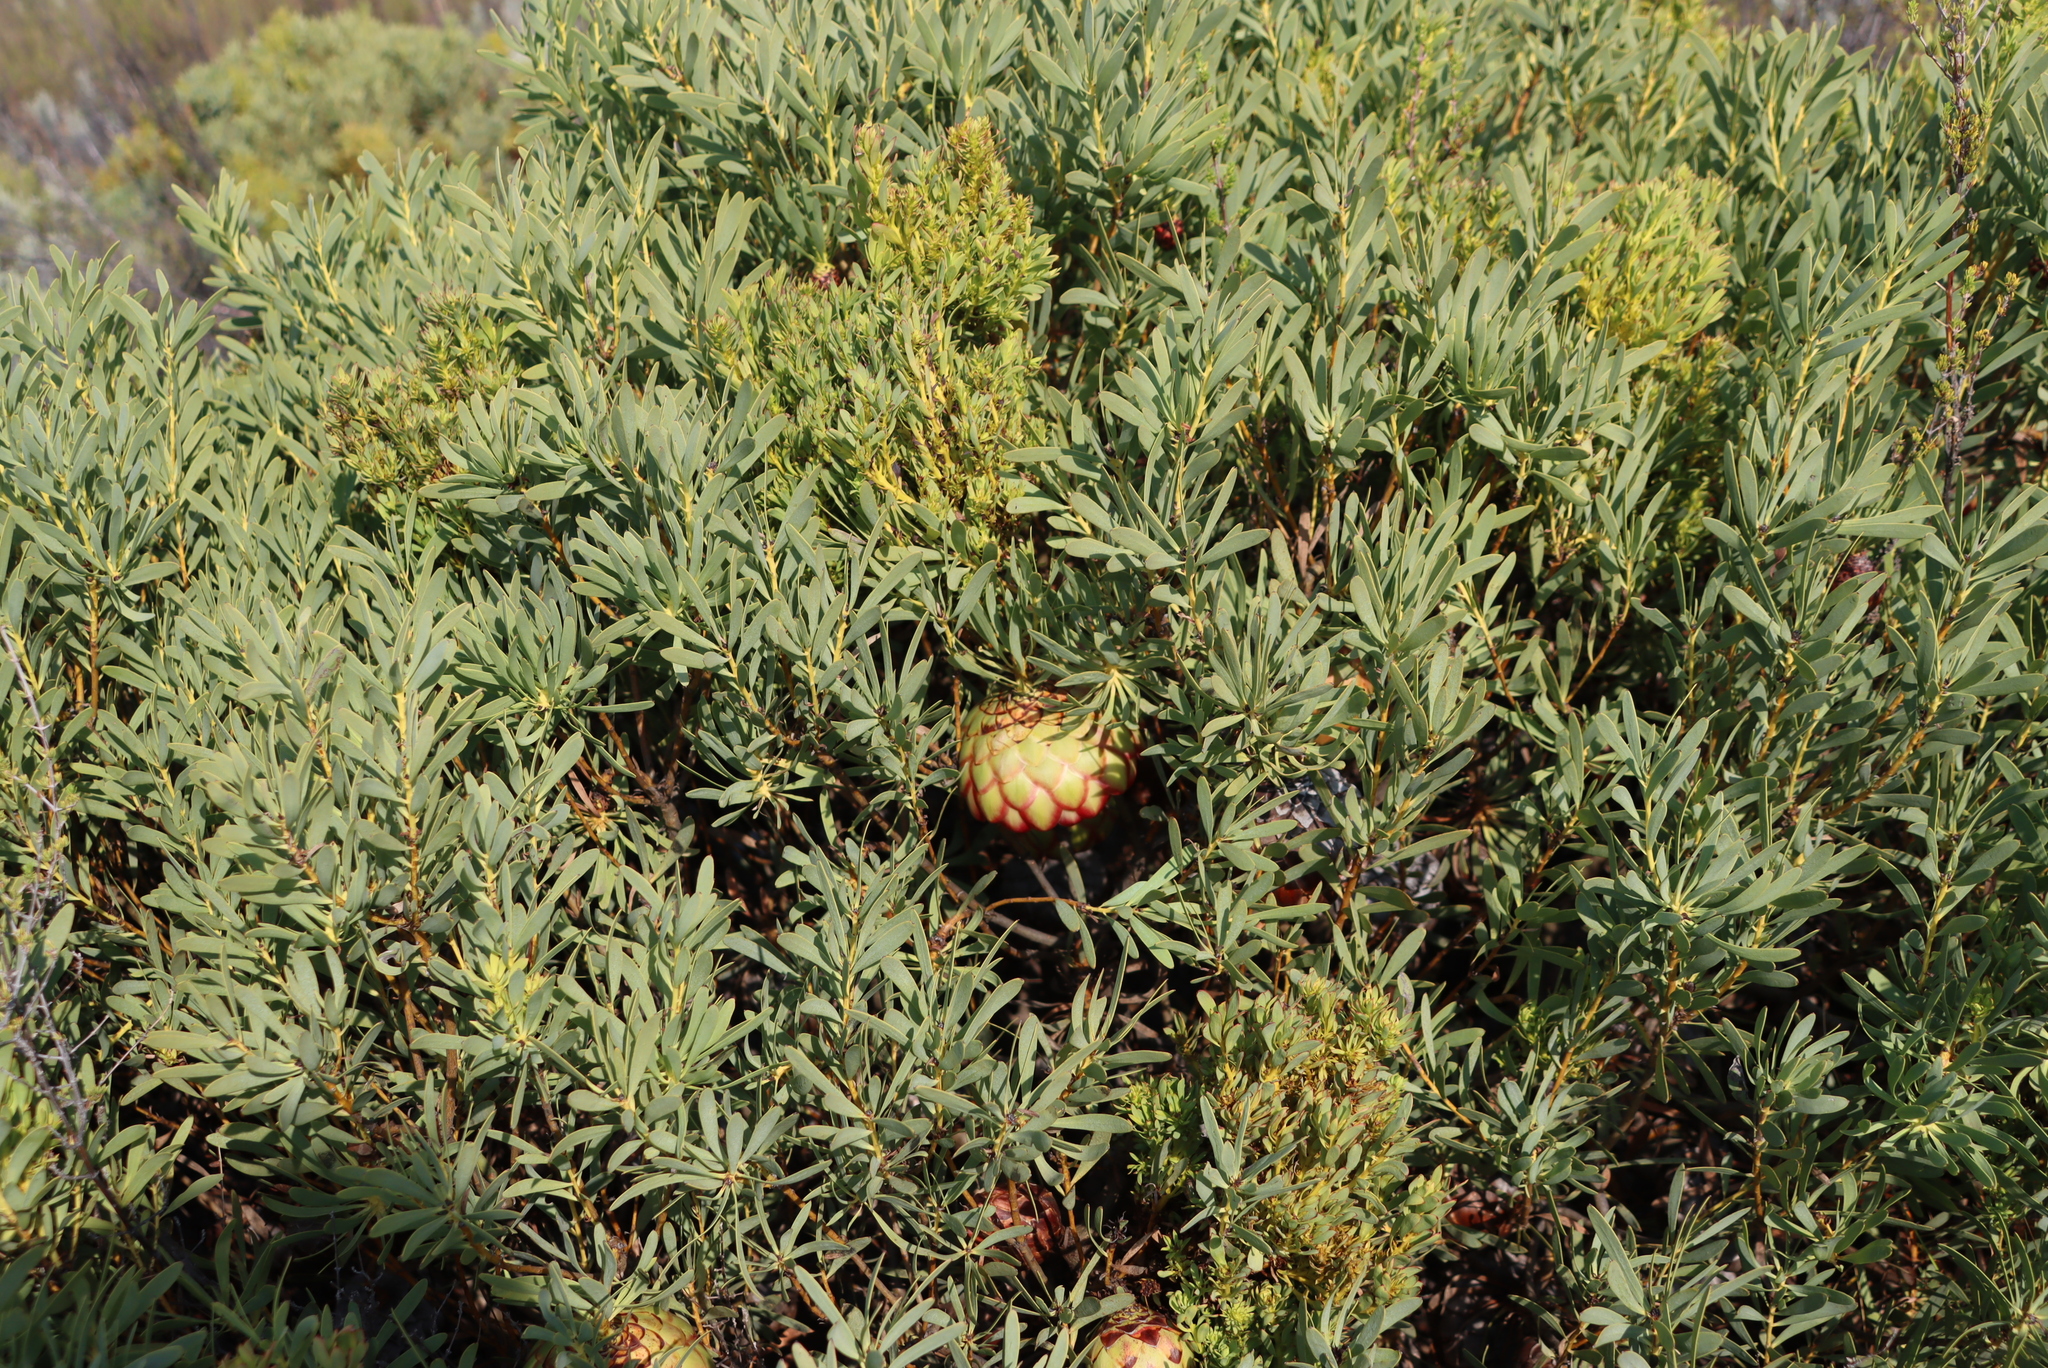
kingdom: Plantae
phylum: Tracheophyta
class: Magnoliopsida
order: Proteales
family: Proteaceae
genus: Protea
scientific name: Protea namaquana
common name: Kamiesberg sugarbush
